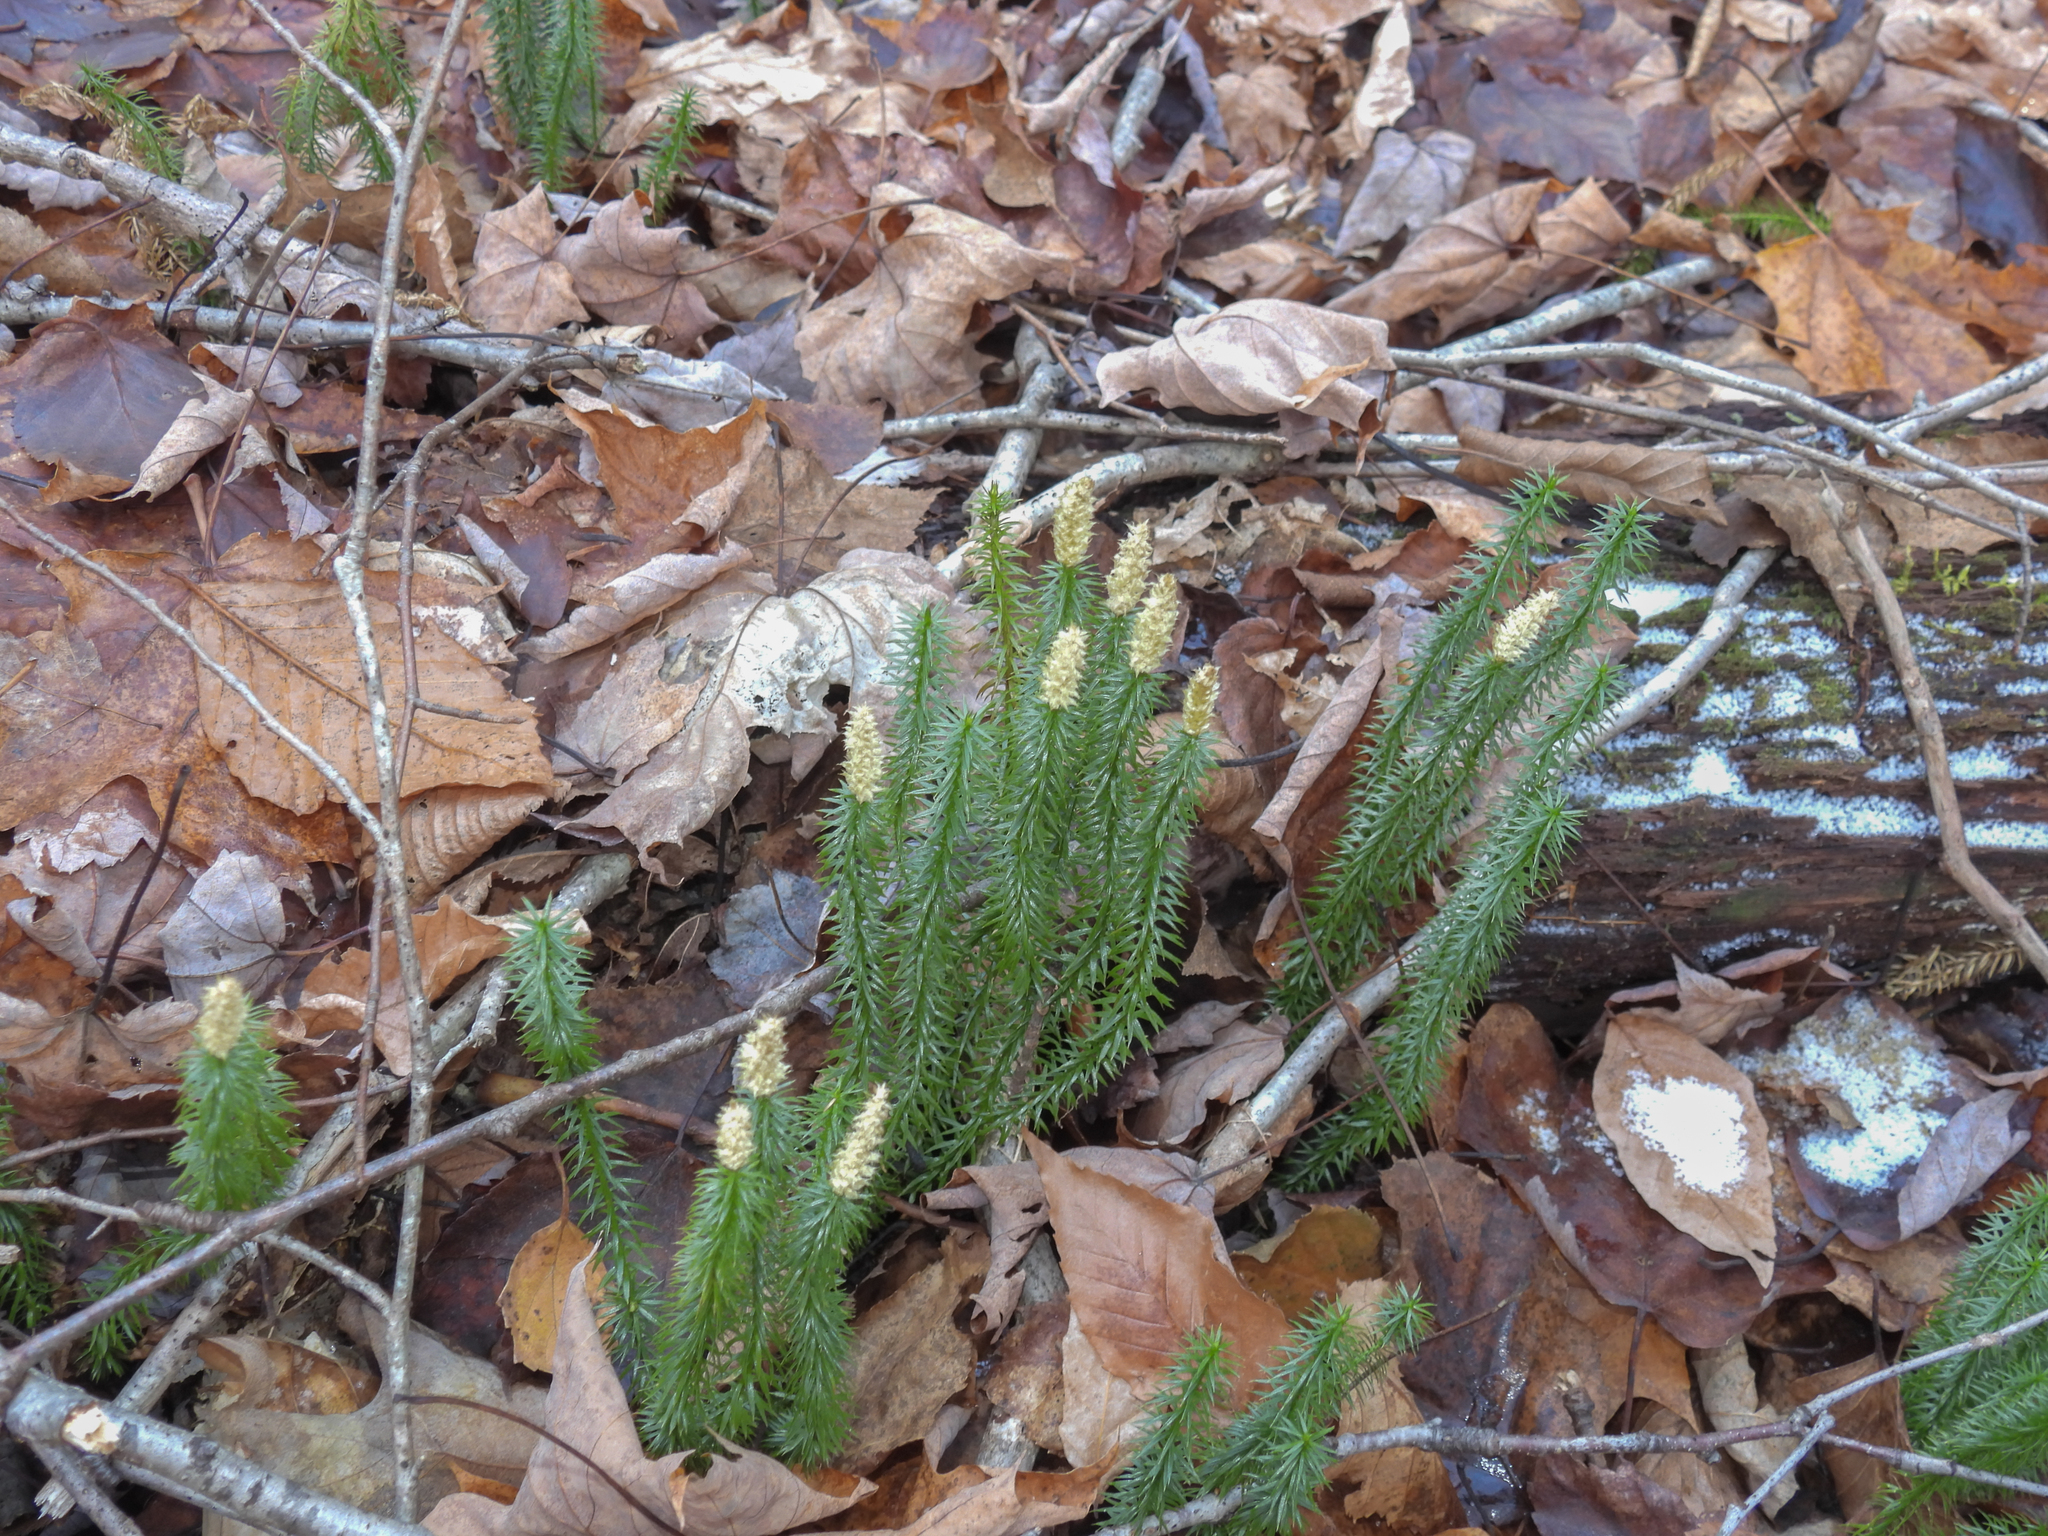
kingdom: Plantae
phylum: Tracheophyta
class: Lycopodiopsida
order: Lycopodiales
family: Lycopodiaceae
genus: Spinulum
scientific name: Spinulum annotinum
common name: Interrupted club-moss
